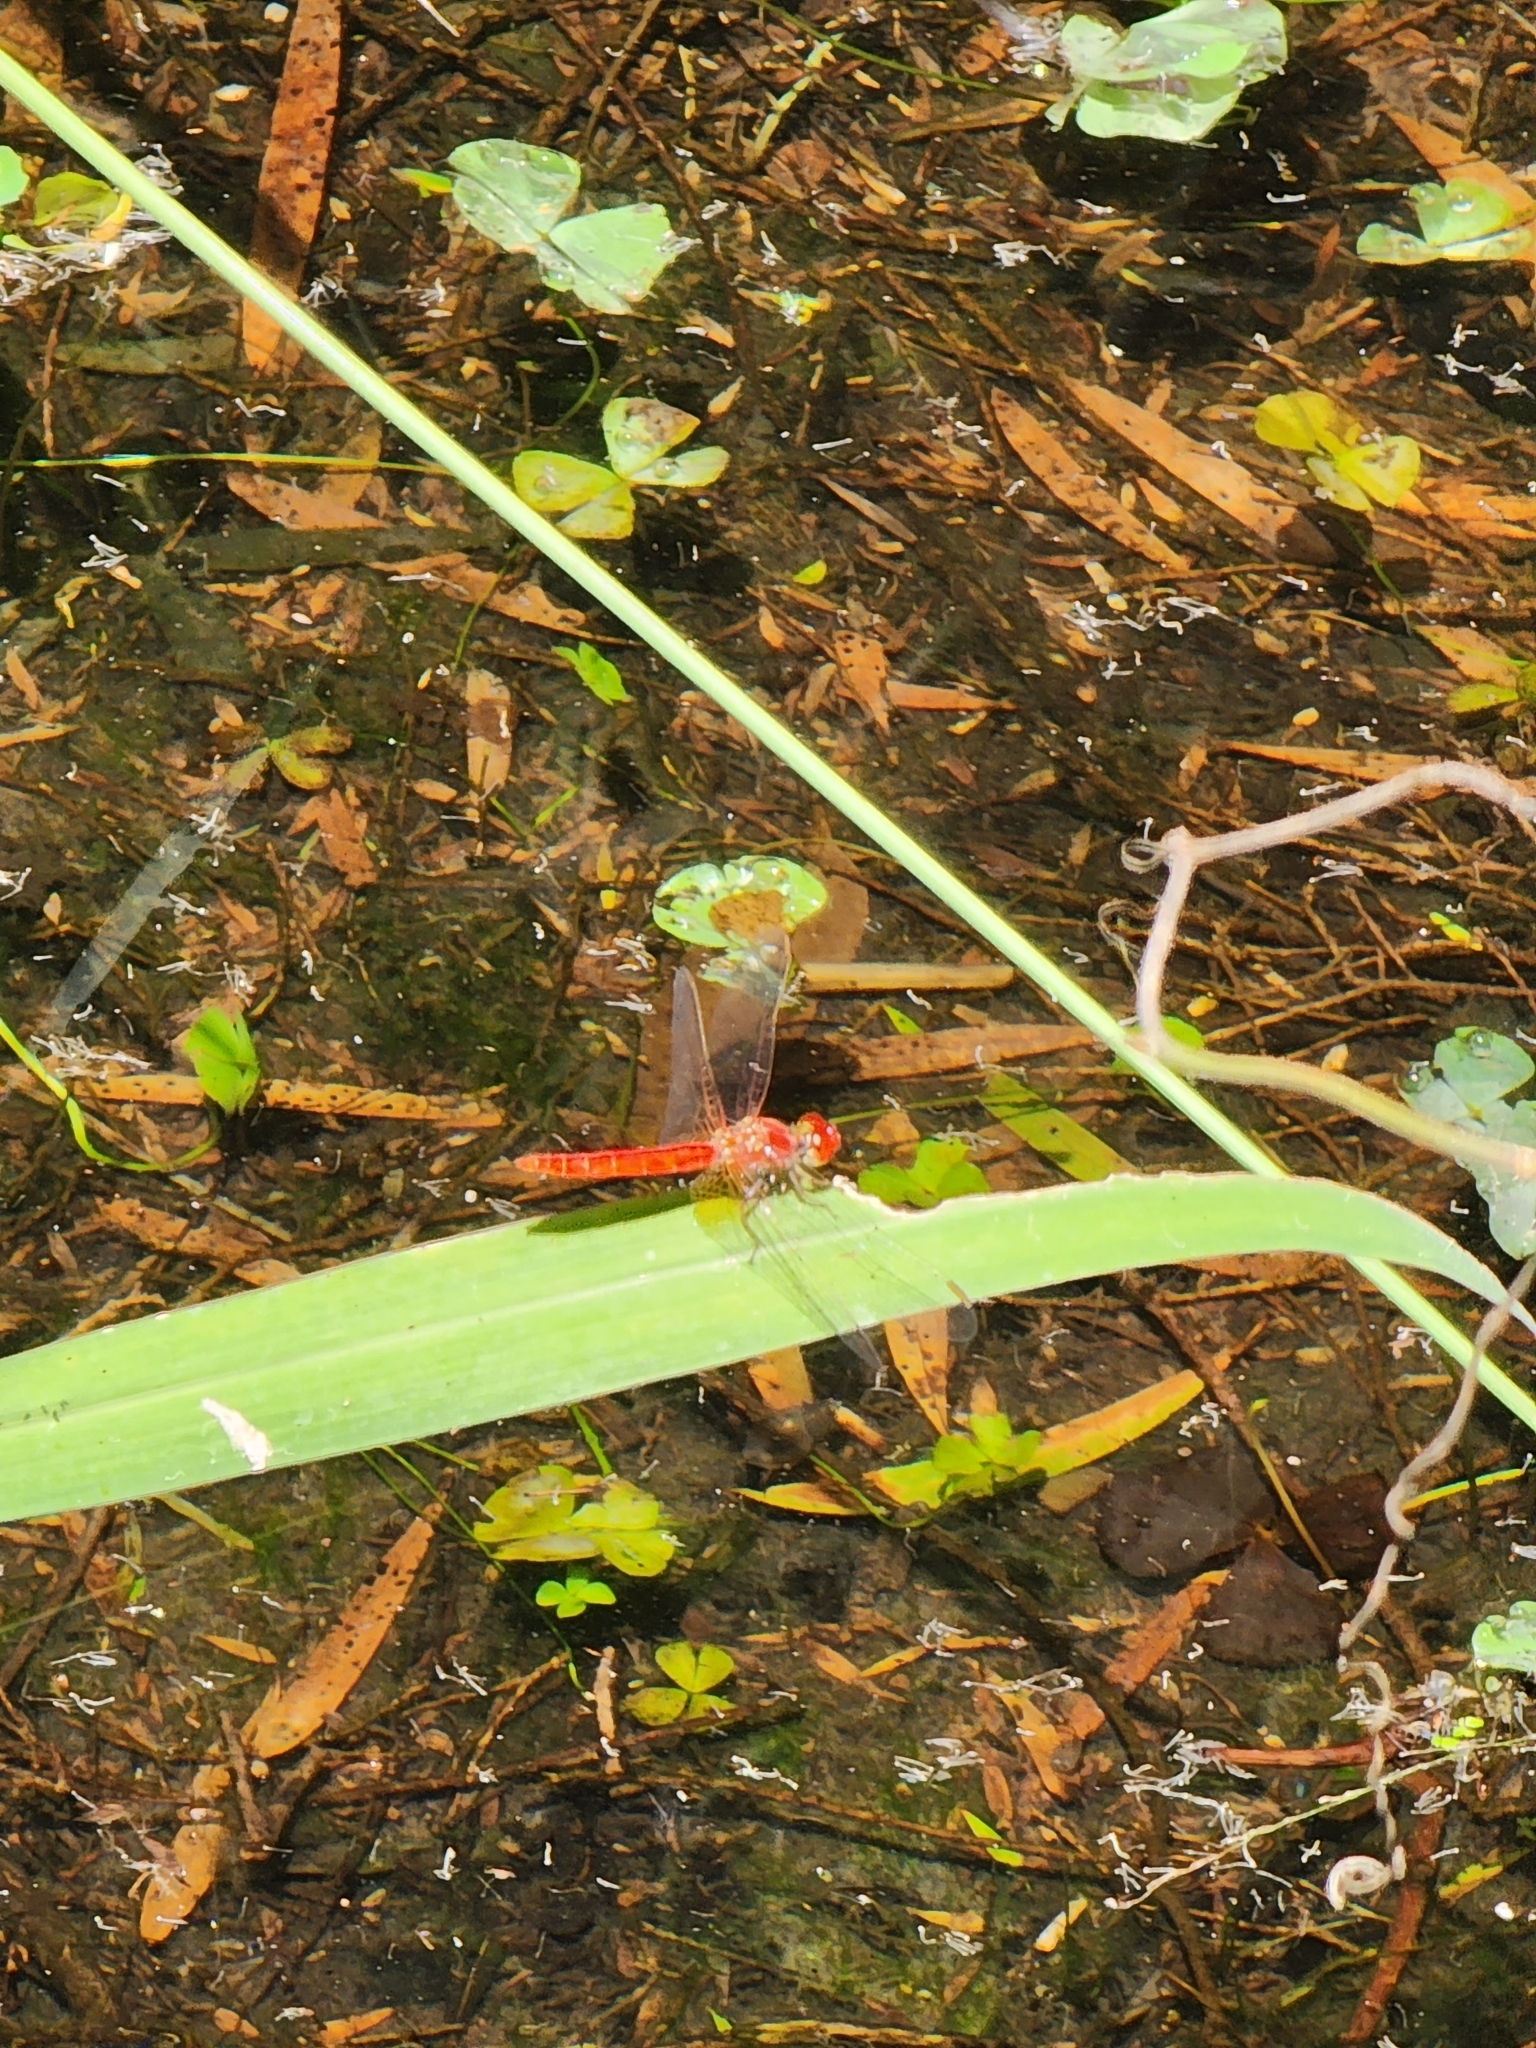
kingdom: Animalia
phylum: Arthropoda
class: Insecta
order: Odonata
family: Libellulidae
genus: Diplacodes
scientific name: Diplacodes haematodes
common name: Scarlet percher
